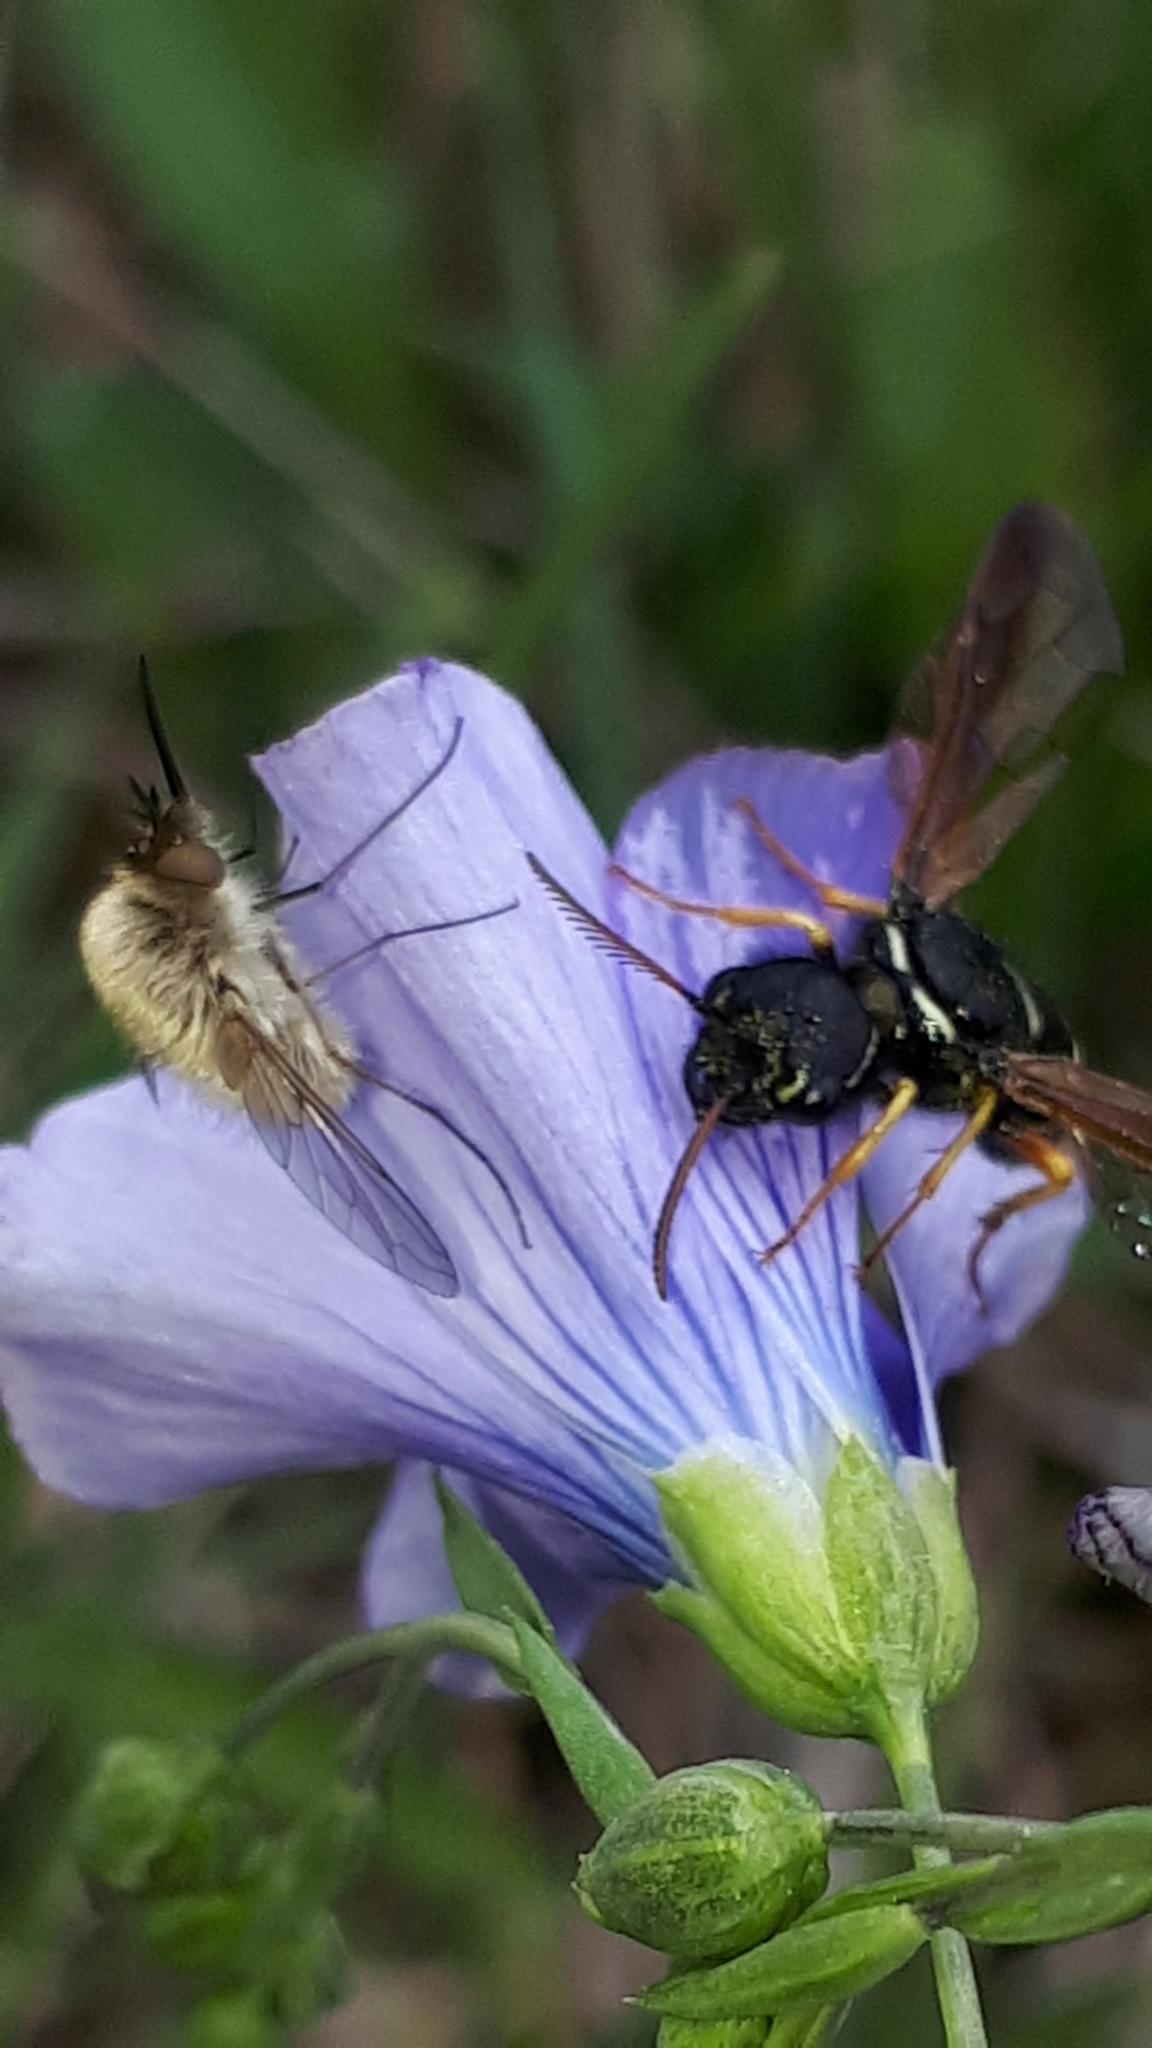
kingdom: Animalia
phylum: Arthropoda
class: Insecta
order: Hymenoptera
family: Megalodontesidae
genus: Megalodontes
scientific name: Megalodontes thor
